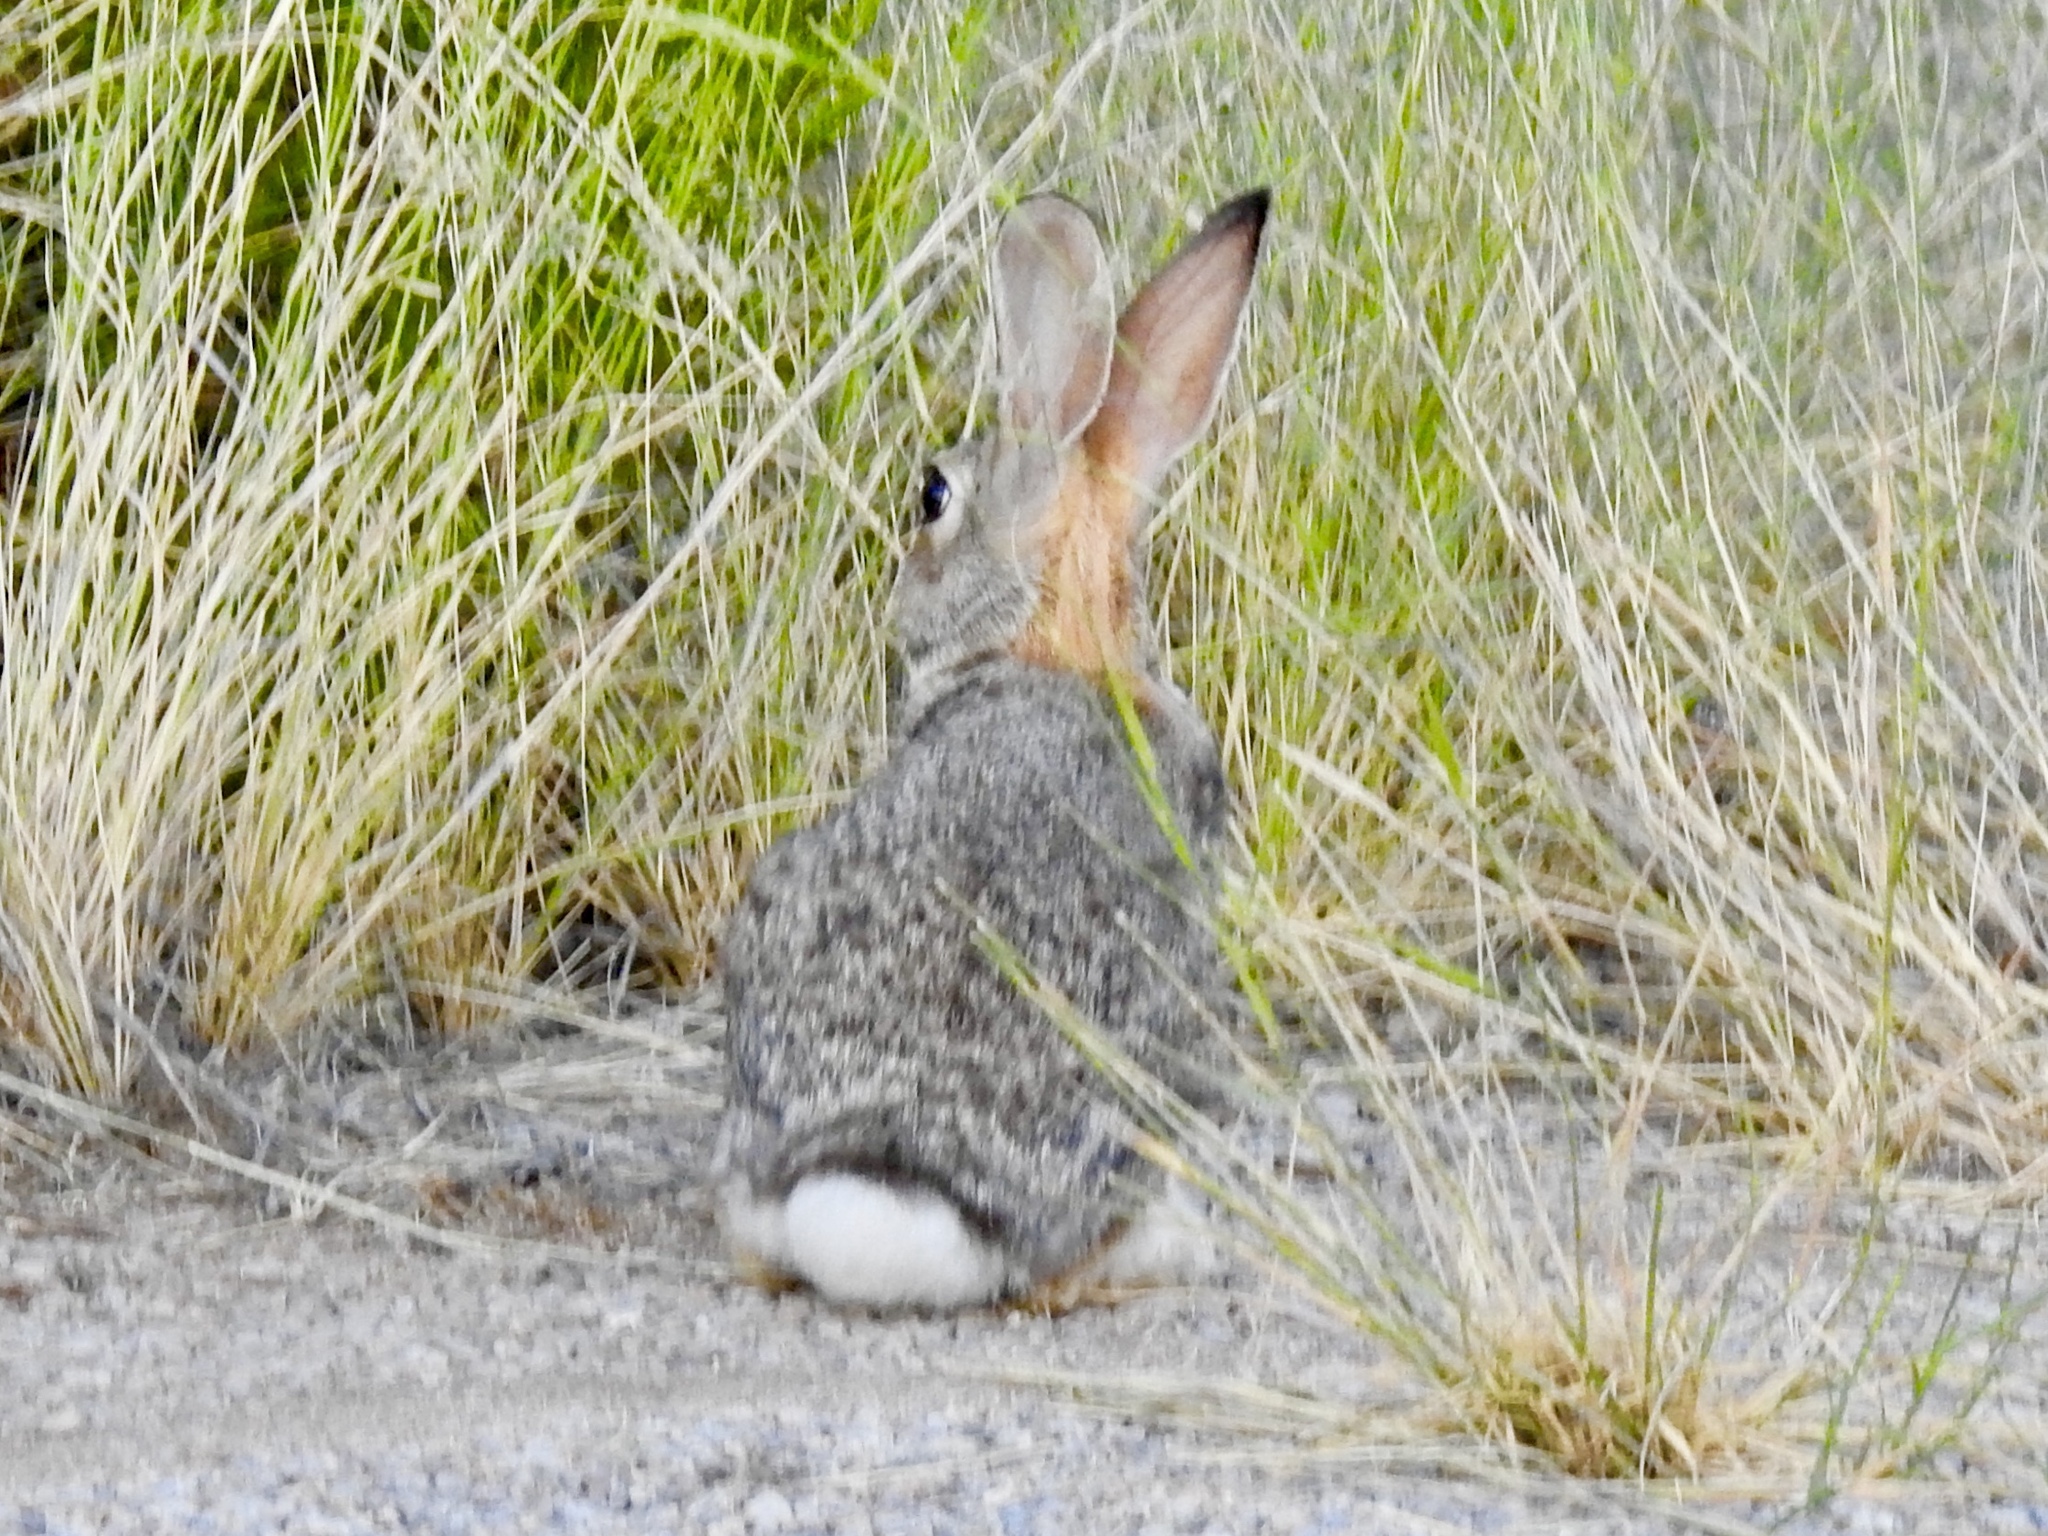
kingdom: Animalia
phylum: Chordata
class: Mammalia
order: Lagomorpha
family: Leporidae
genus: Sylvilagus
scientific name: Sylvilagus audubonii
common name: Desert cottontail
